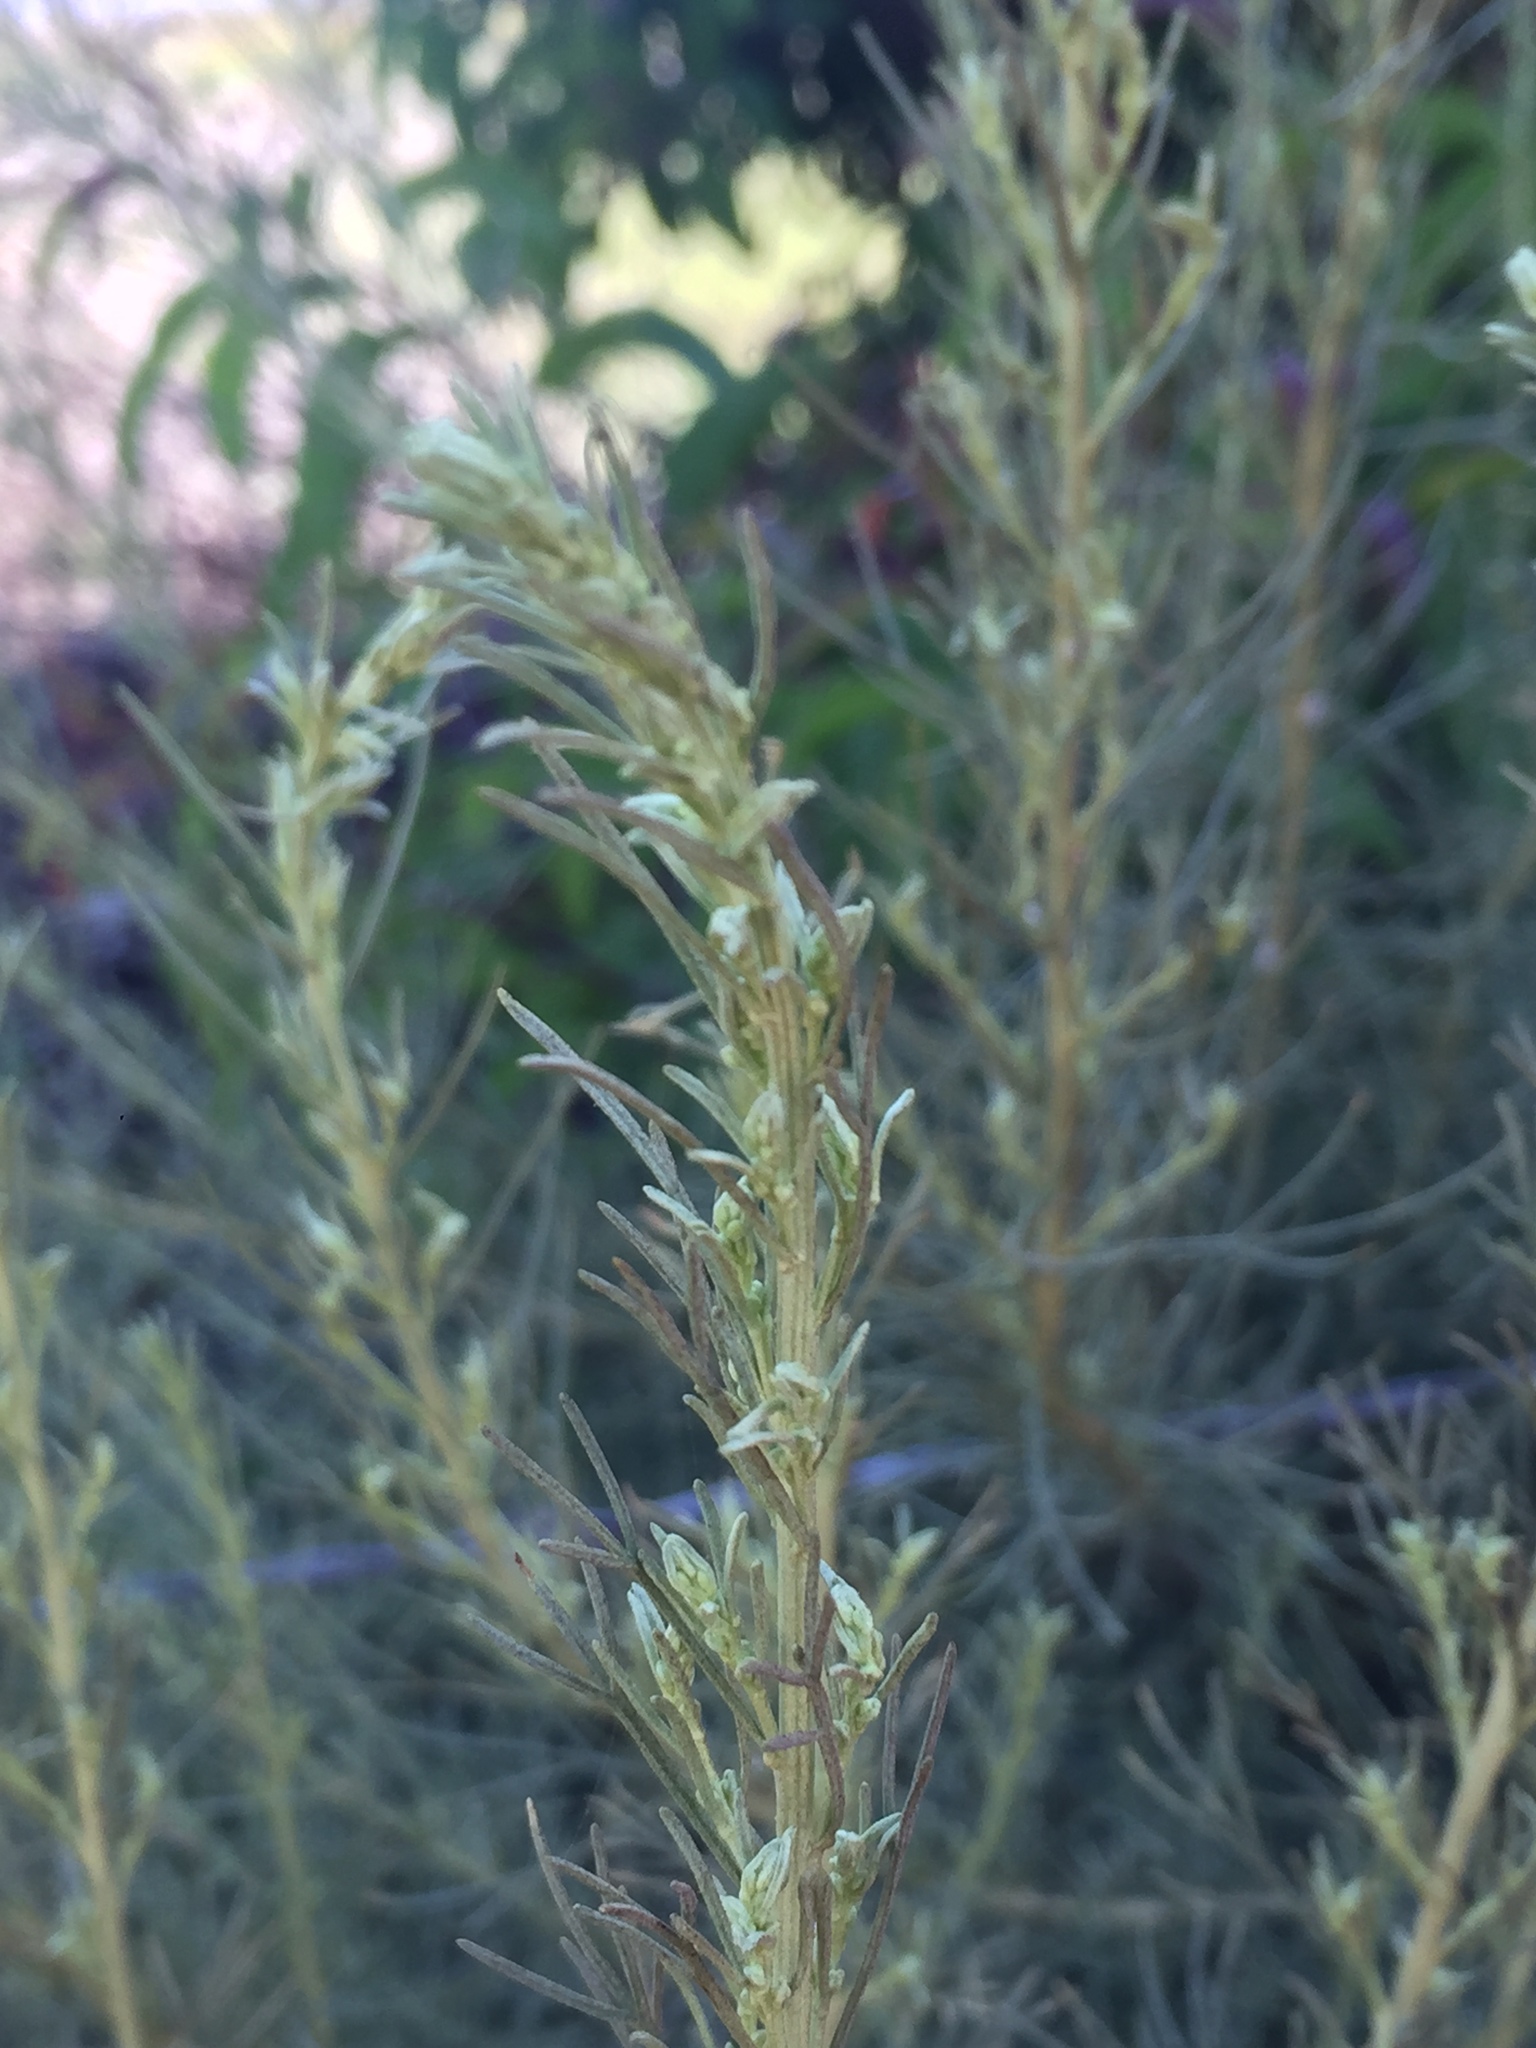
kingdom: Plantae
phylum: Tracheophyta
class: Magnoliopsida
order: Asterales
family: Asteraceae
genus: Artemisia
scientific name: Artemisia californica
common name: California sagebrush
